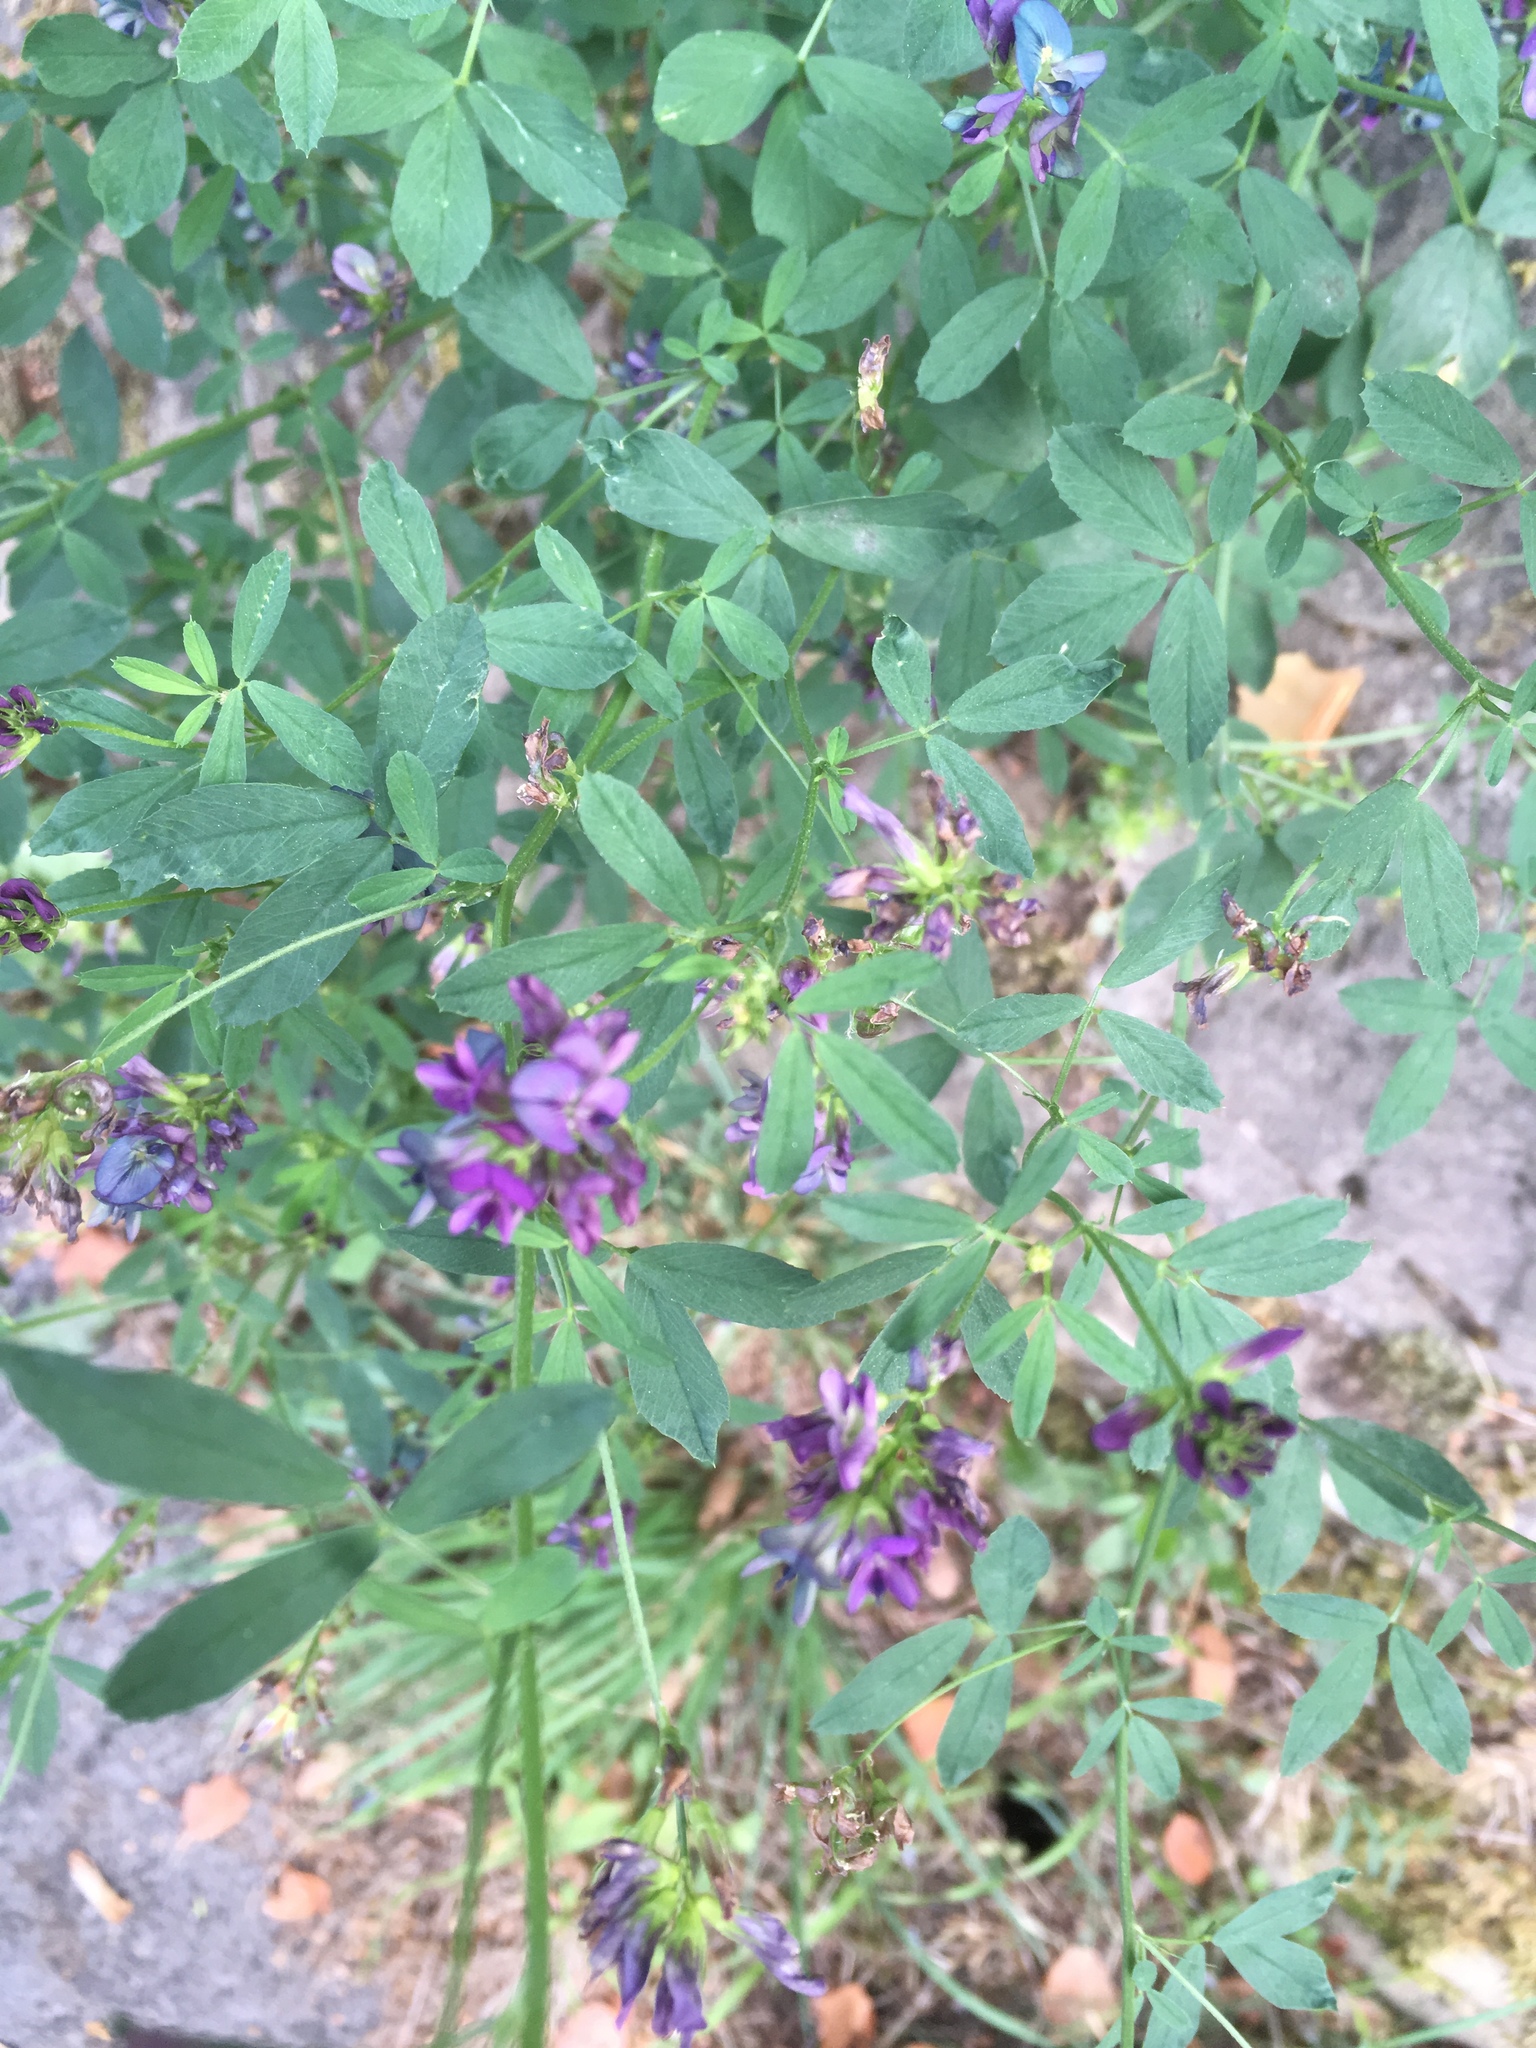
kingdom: Plantae
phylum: Tracheophyta
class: Magnoliopsida
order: Fabales
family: Fabaceae
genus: Medicago
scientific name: Medicago sativa
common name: Alfalfa
